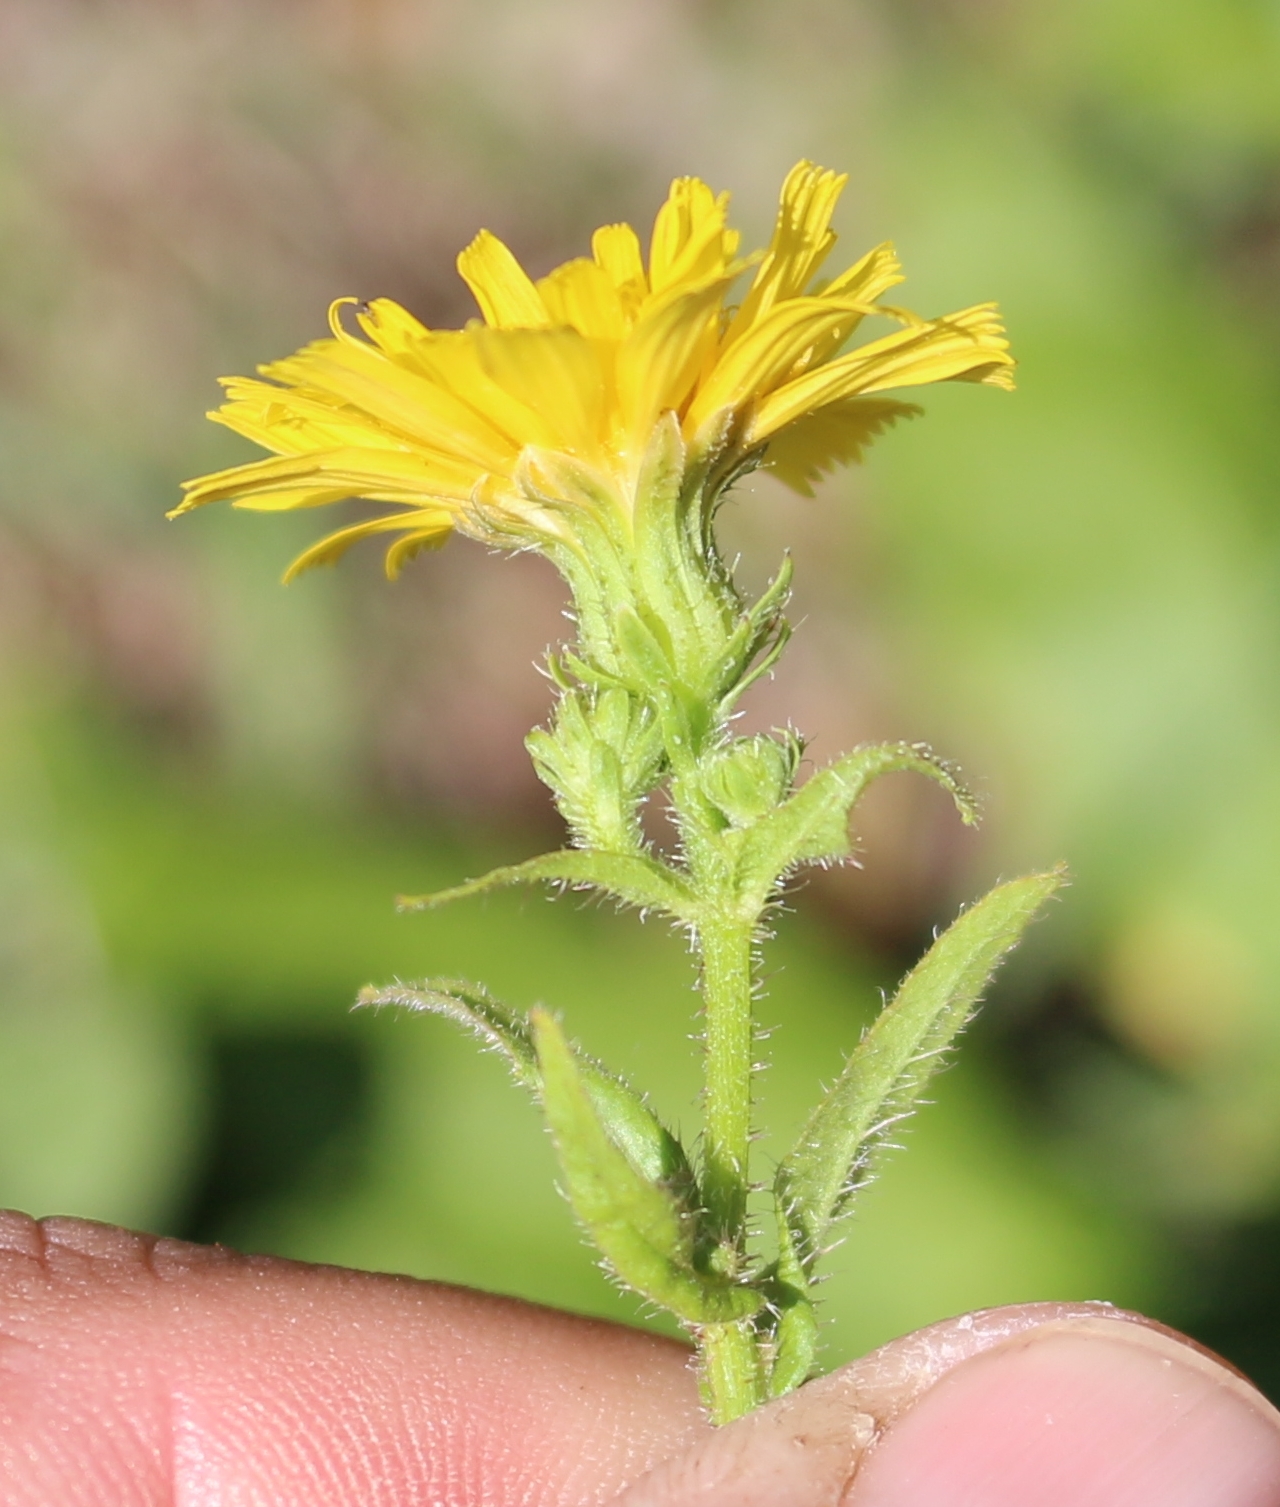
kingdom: Plantae
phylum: Tracheophyta
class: Magnoliopsida
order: Asterales
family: Asteraceae
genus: Picris
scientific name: Picris hieracioides
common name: Hawkweed oxtongue
